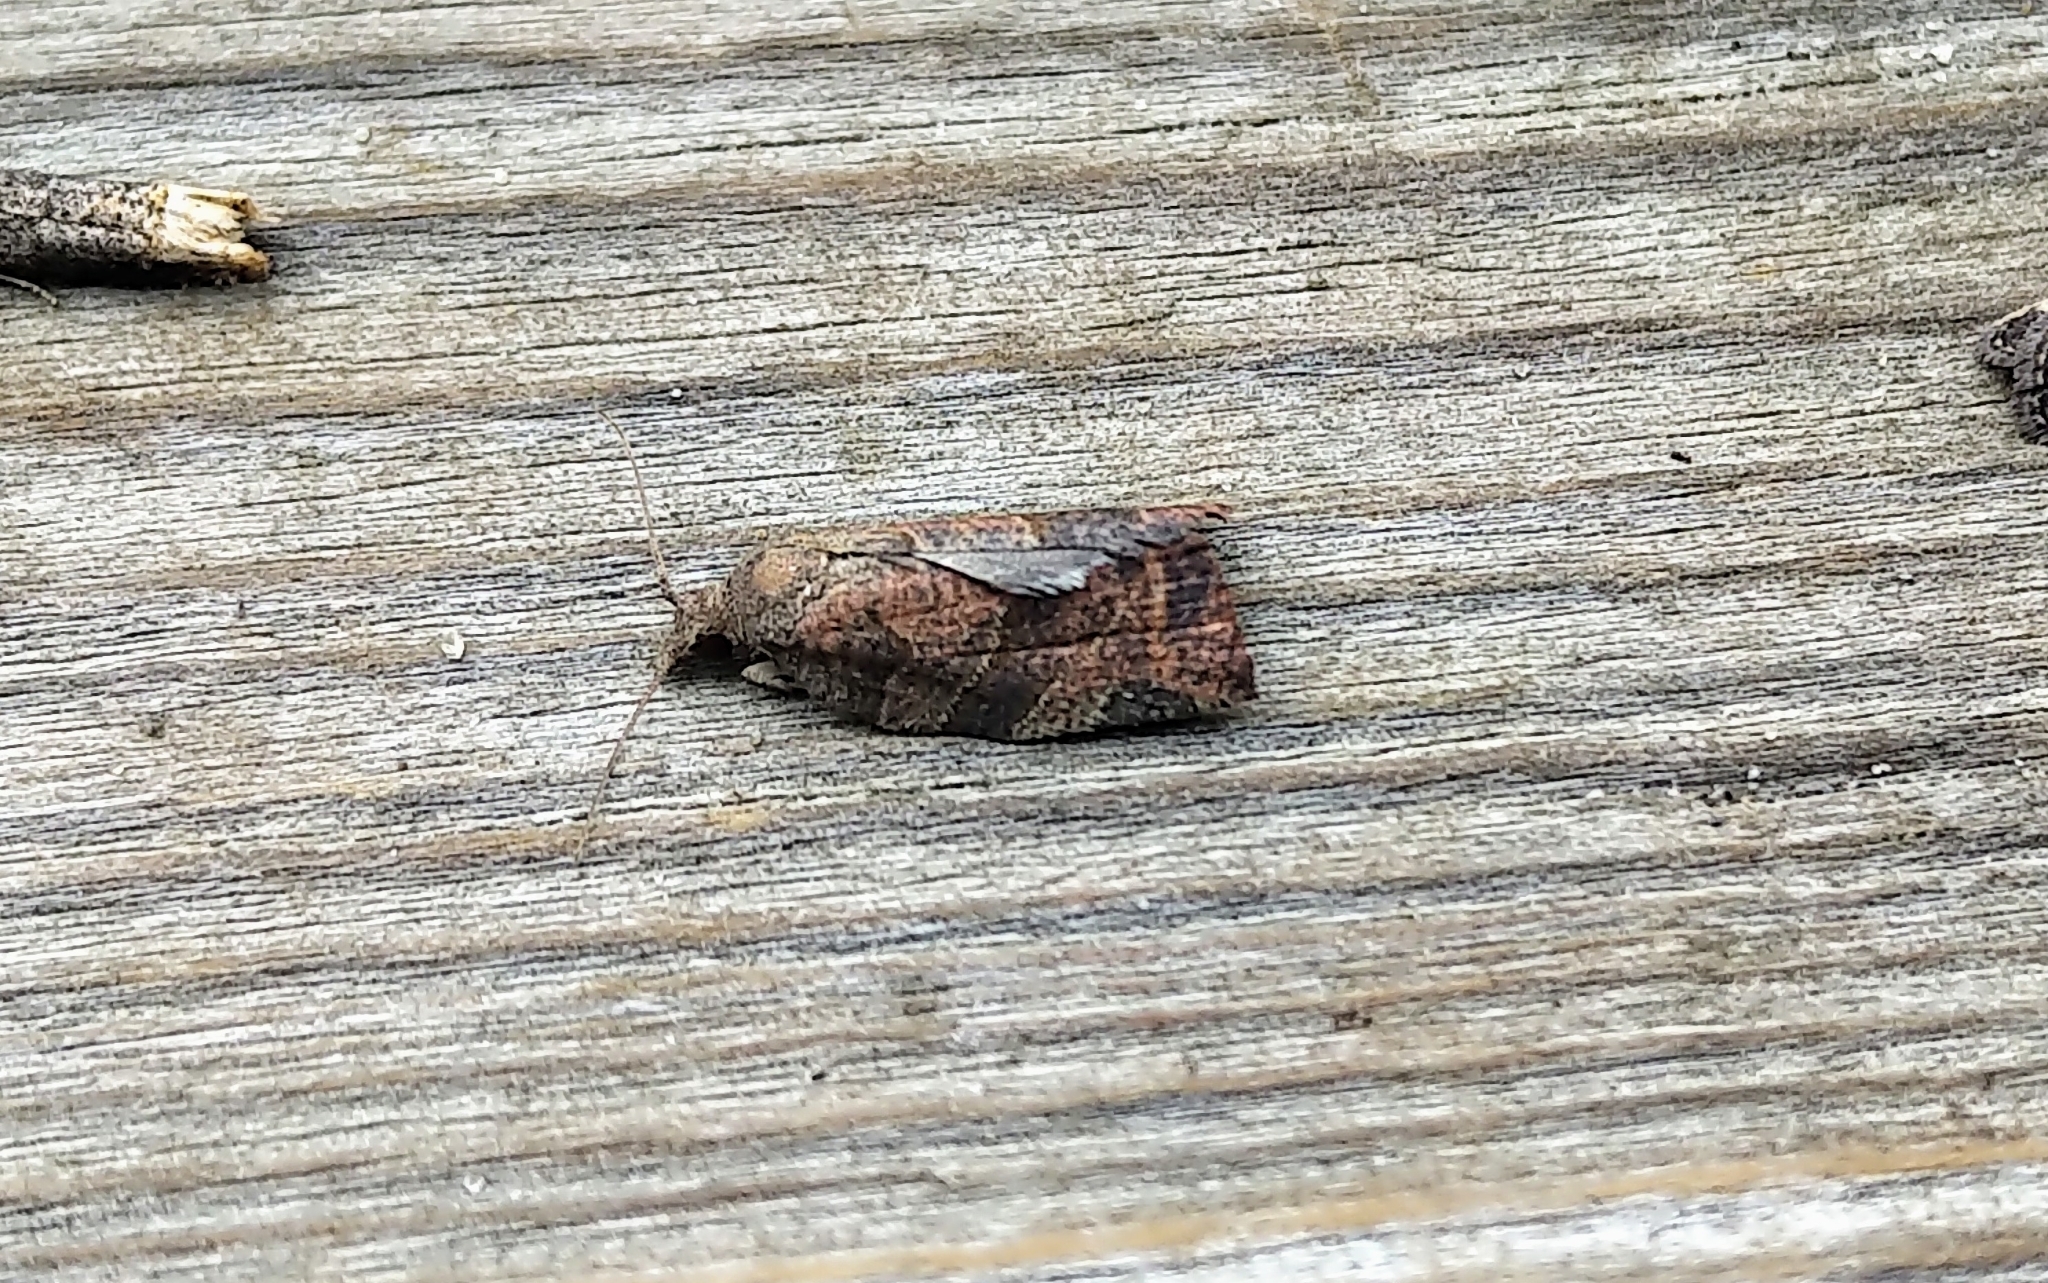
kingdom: Animalia
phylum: Arthropoda
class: Insecta
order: Lepidoptera
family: Tortricidae
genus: Pandemis
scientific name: Pandemis canadana
